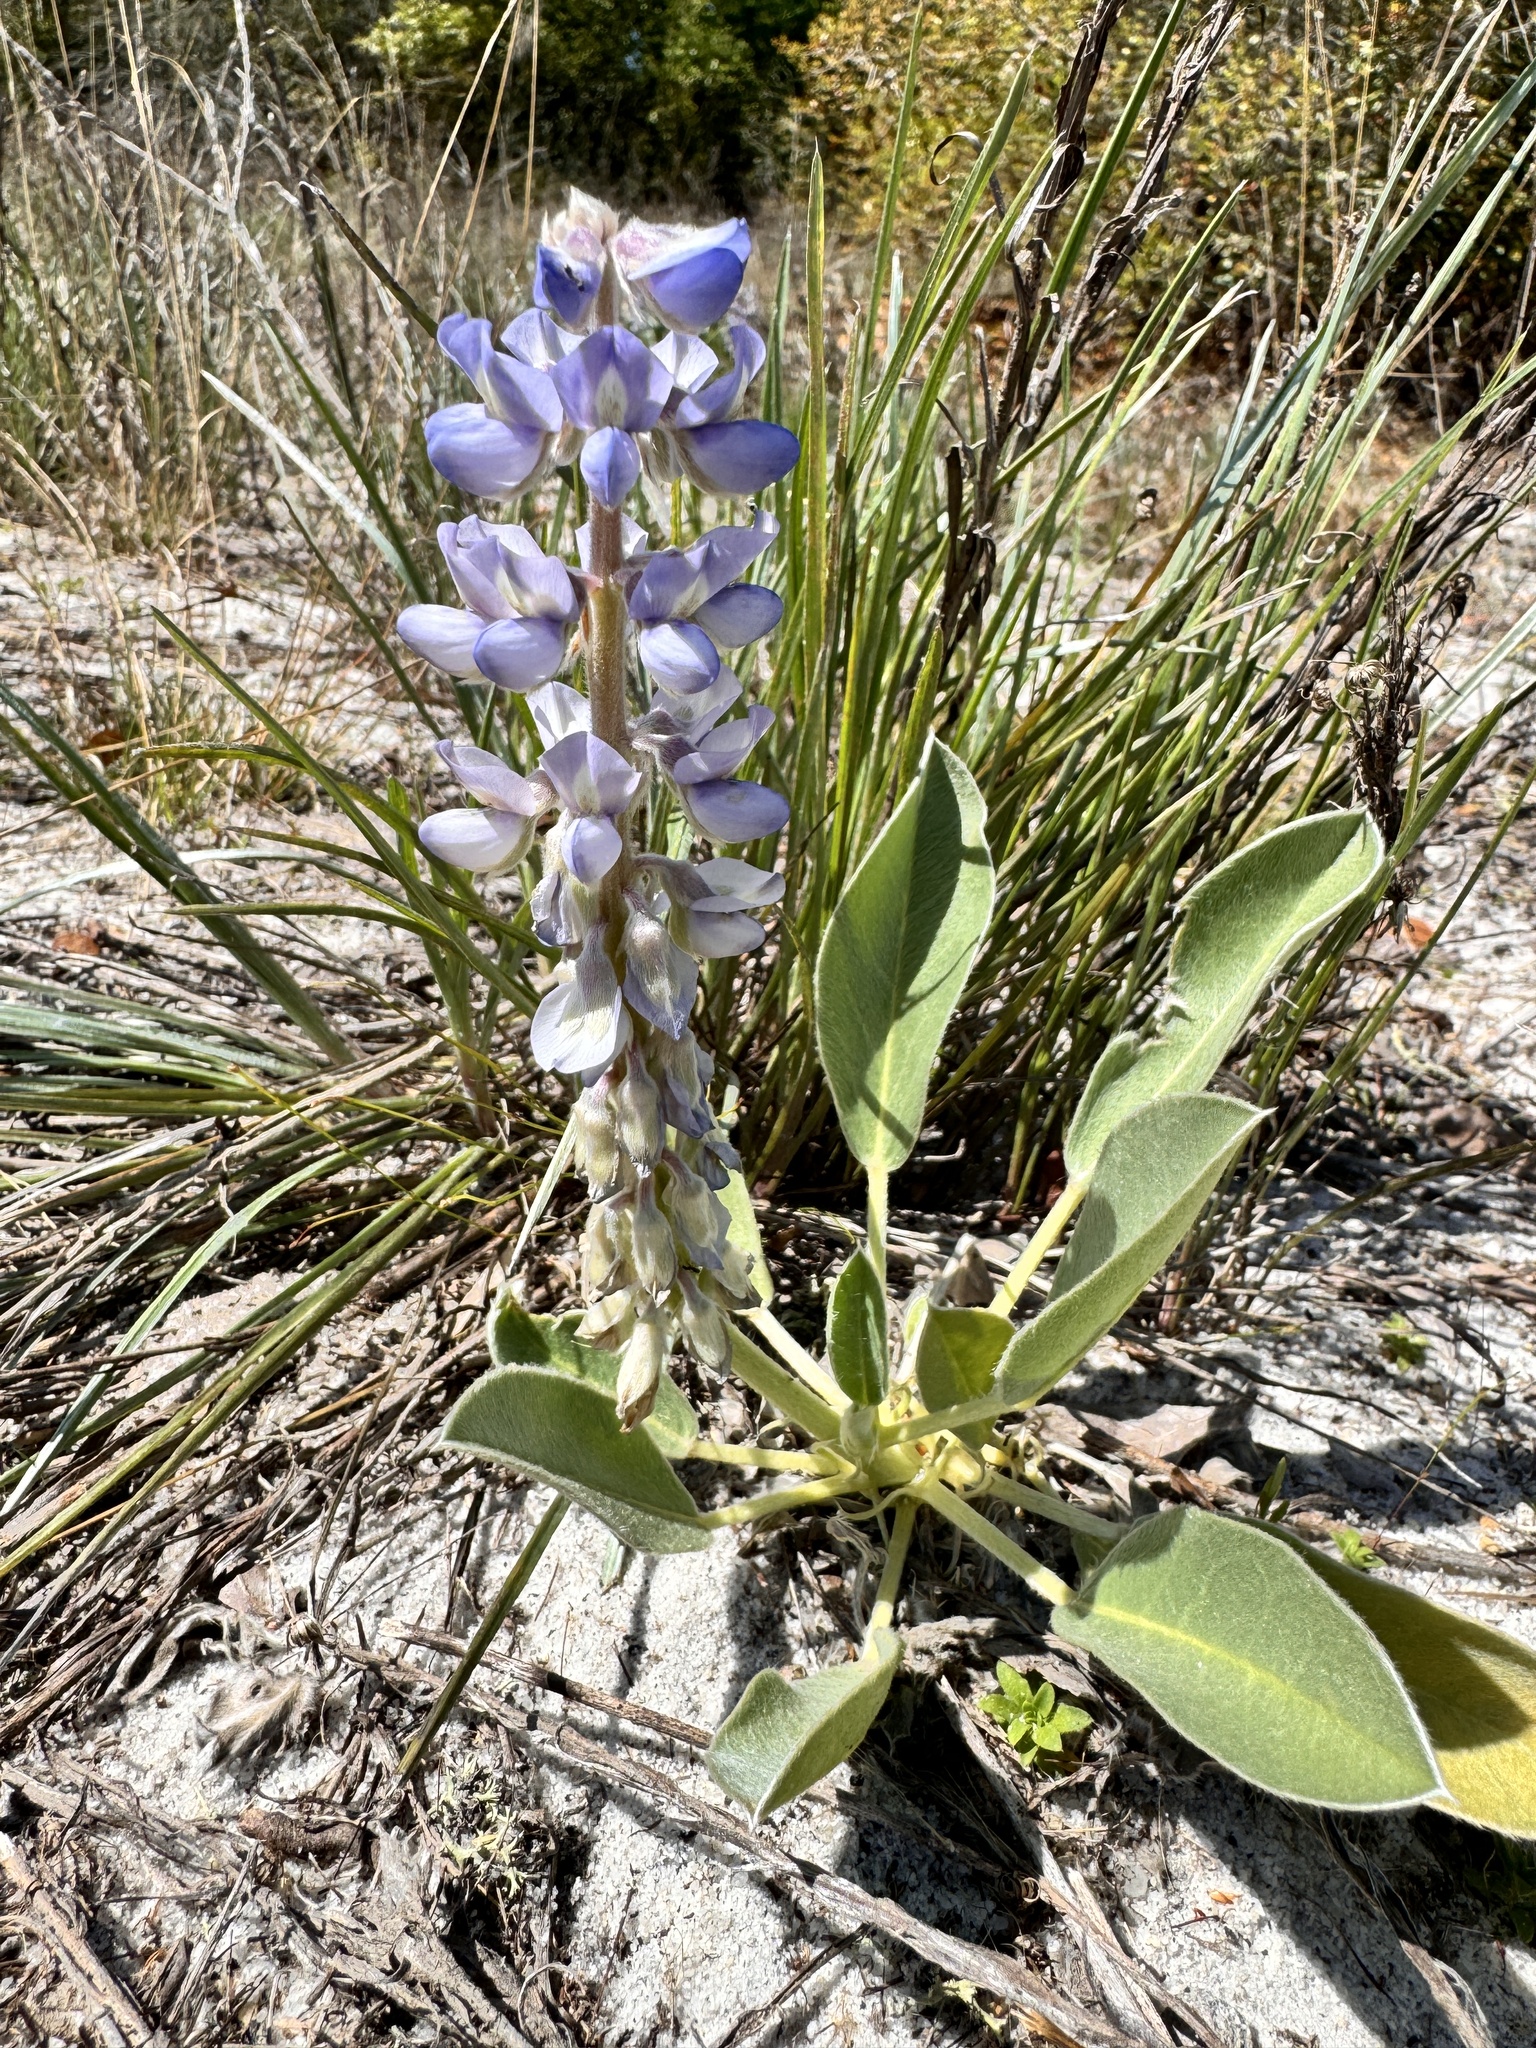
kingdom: Plantae
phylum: Tracheophyta
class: Magnoliopsida
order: Fabales
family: Fabaceae
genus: Lupinus
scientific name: Lupinus
